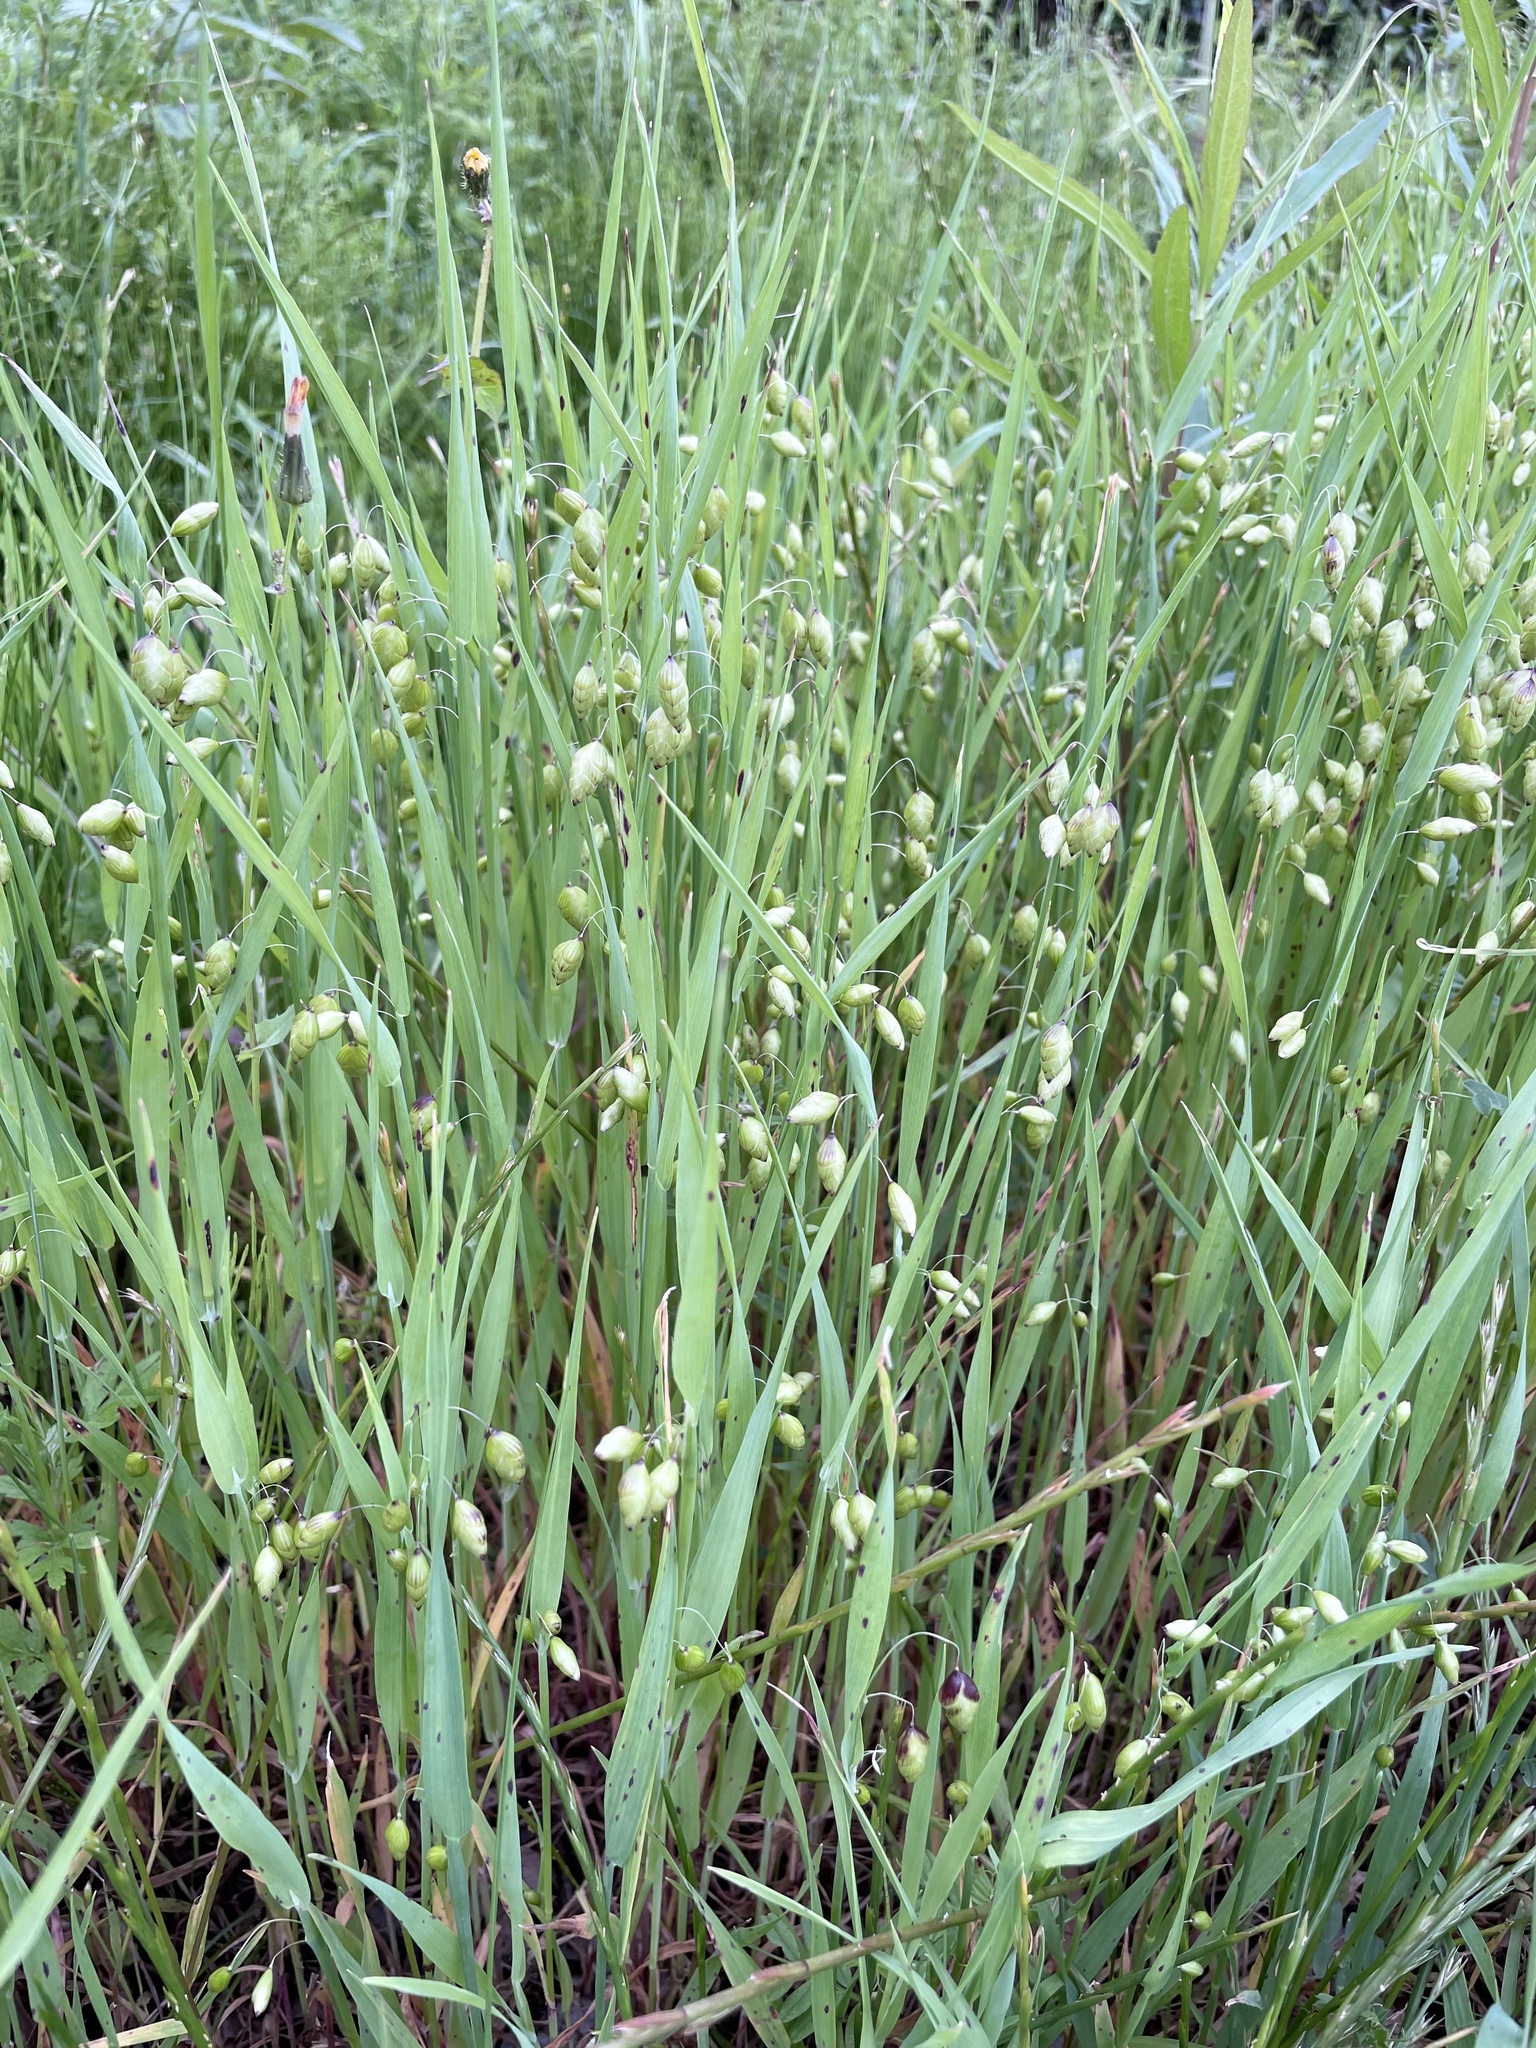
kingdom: Plantae
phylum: Tracheophyta
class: Liliopsida
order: Poales
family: Poaceae
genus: Briza
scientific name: Briza maxima
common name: Big quakinggrass
